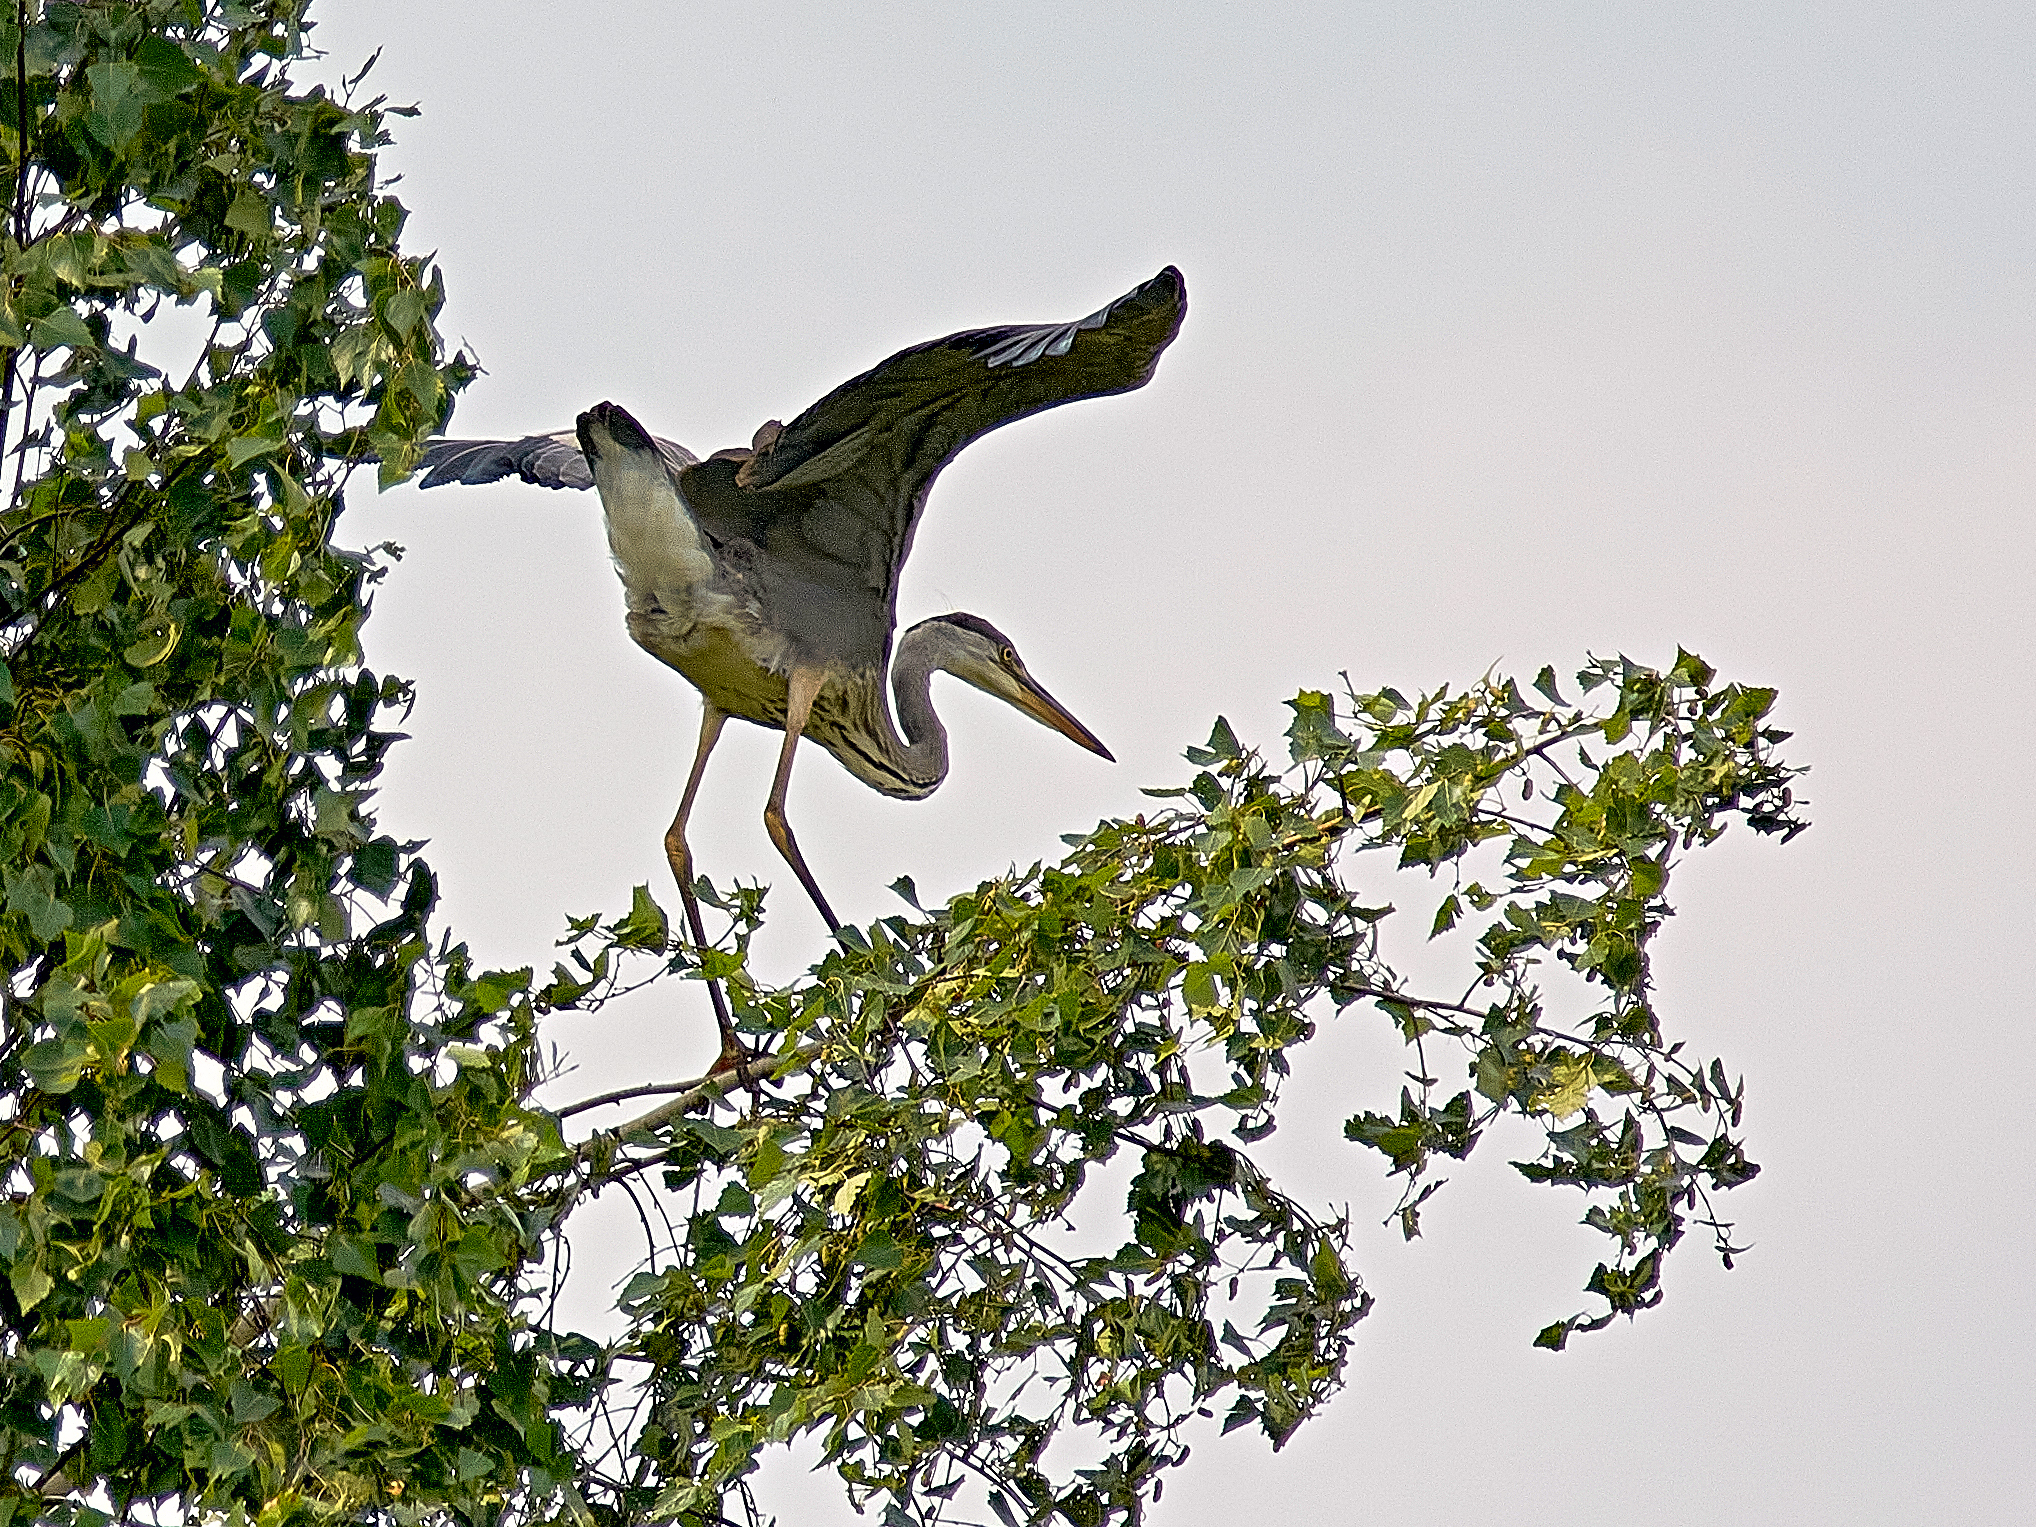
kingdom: Animalia
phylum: Chordata
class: Aves
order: Pelecaniformes
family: Ardeidae
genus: Ardea
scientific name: Ardea cinerea
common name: Grey heron
